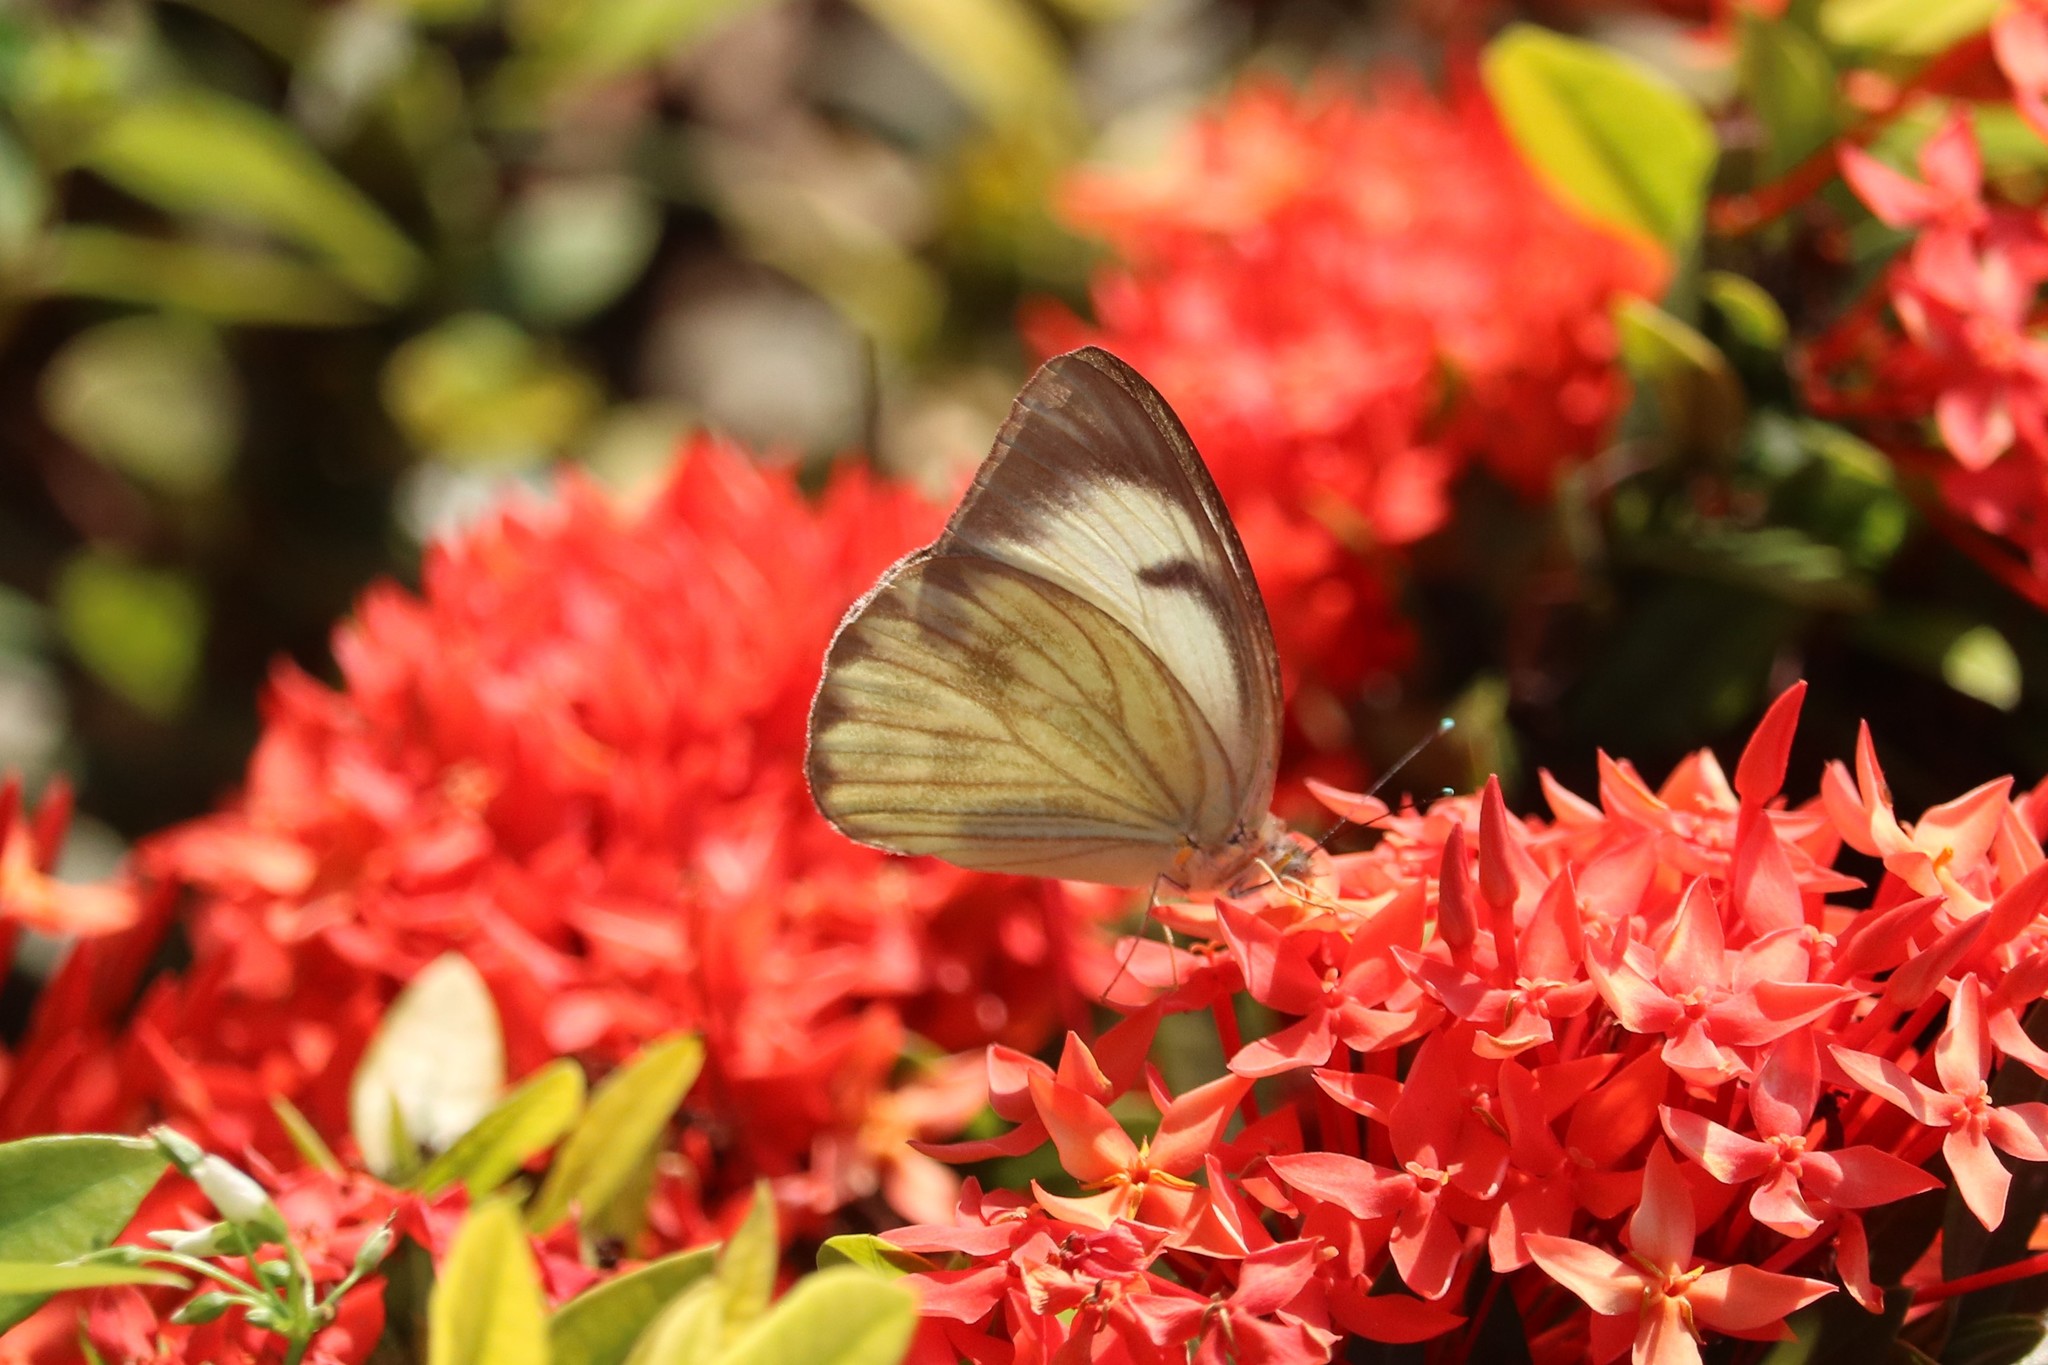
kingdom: Animalia
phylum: Arthropoda
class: Insecta
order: Lepidoptera
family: Pieridae
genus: Ascia
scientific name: Ascia monuste
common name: Great southern white
